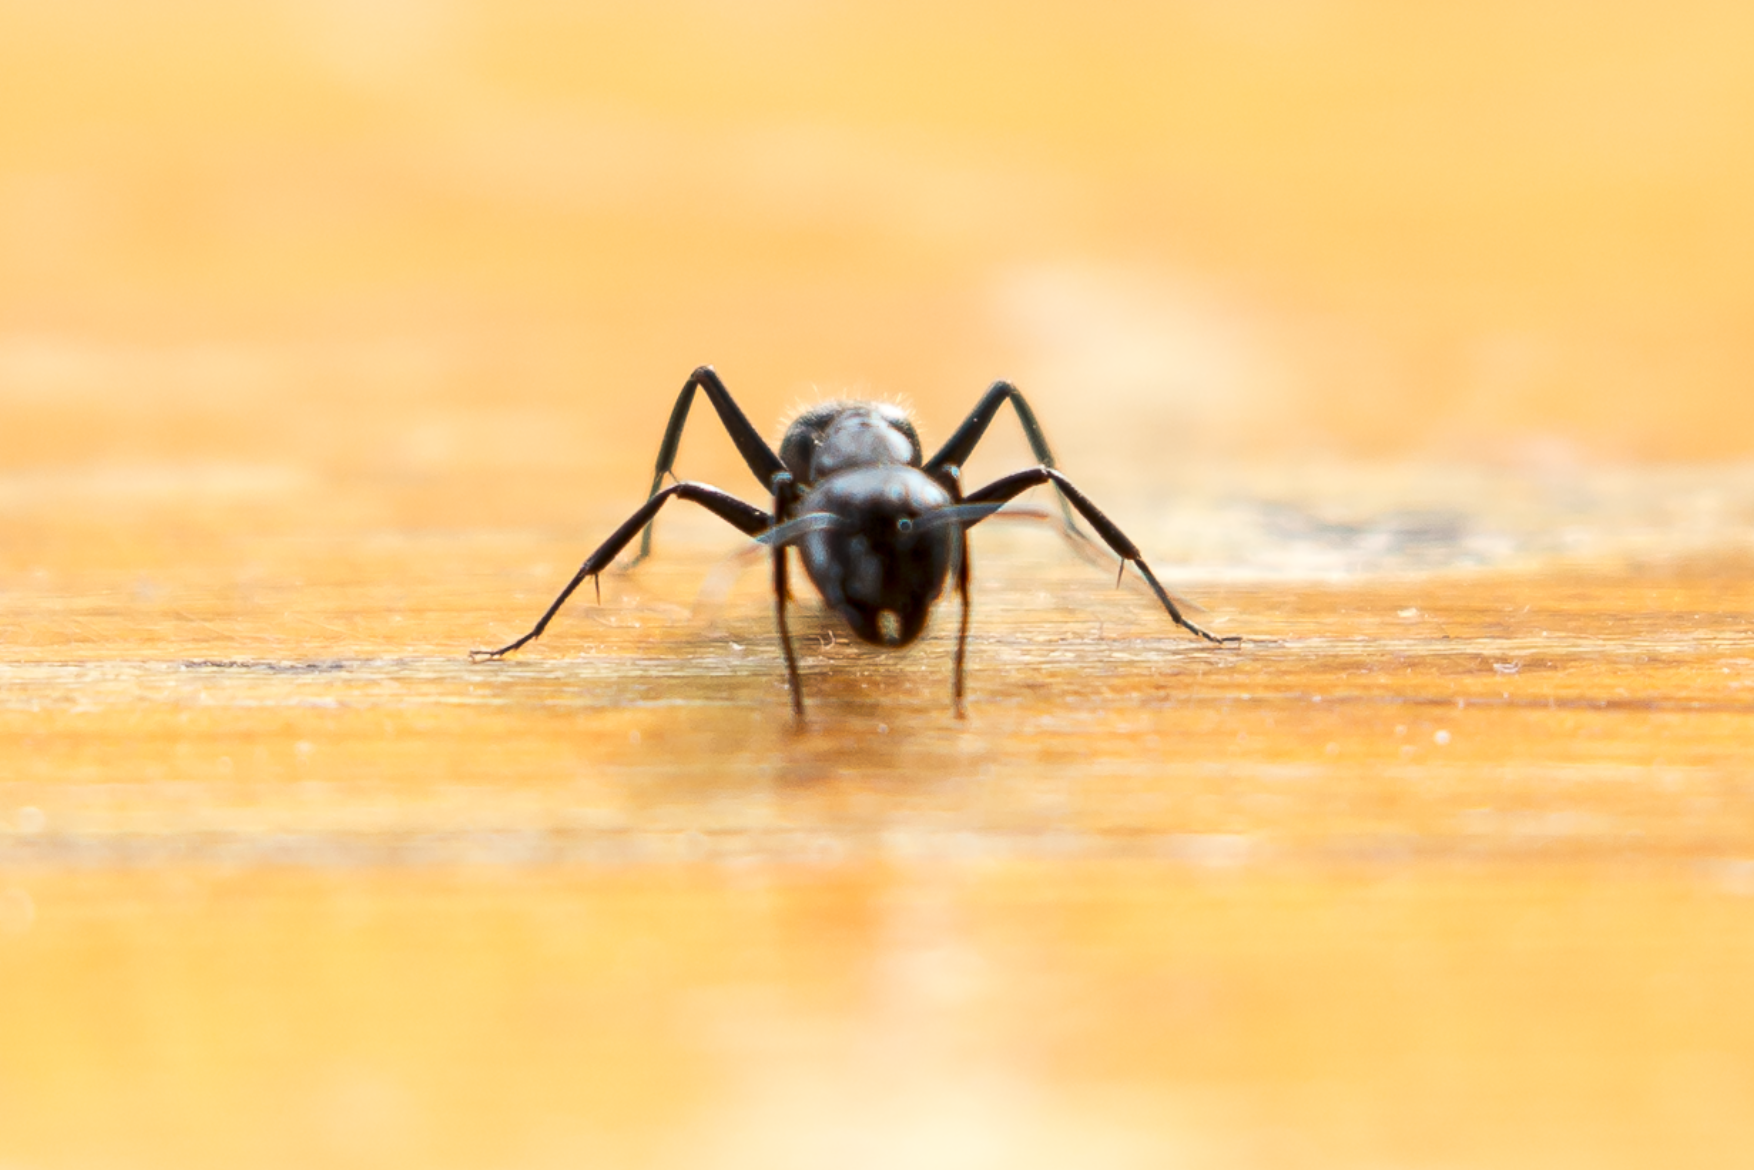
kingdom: Animalia
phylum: Arthropoda
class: Insecta
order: Hymenoptera
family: Formicidae
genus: Camponotus
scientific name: Camponotus vagus
